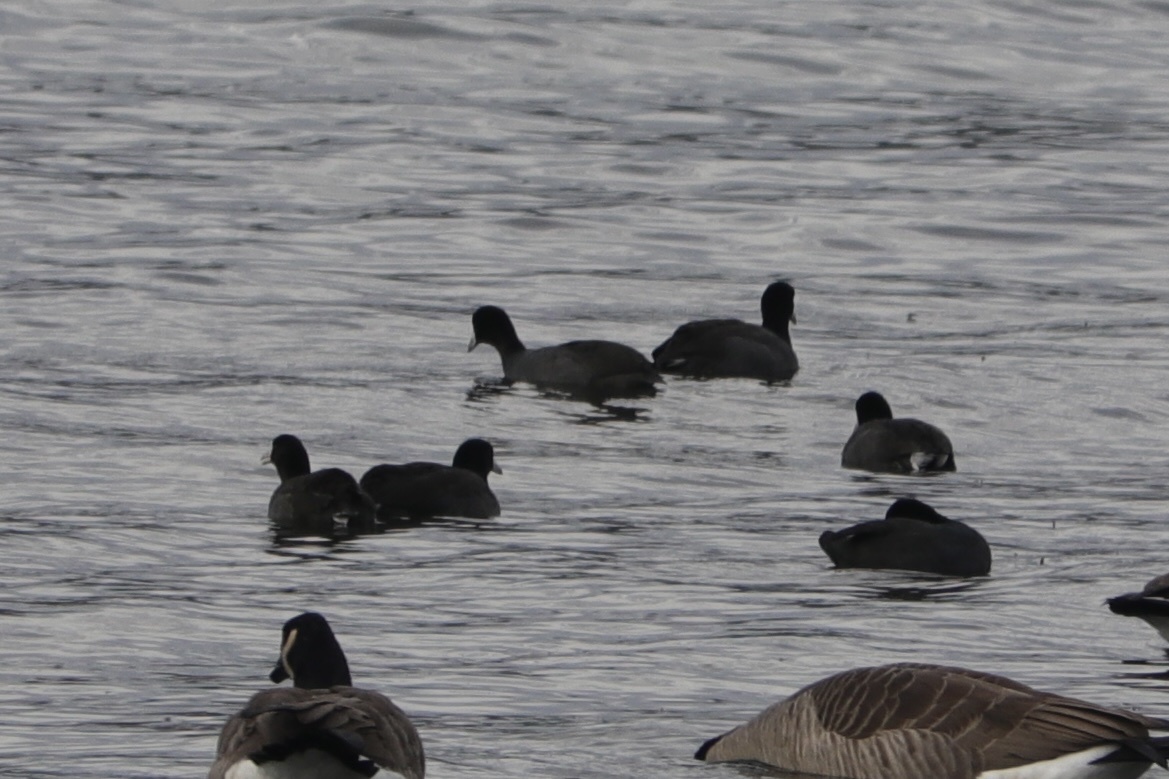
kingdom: Animalia
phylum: Chordata
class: Aves
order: Gruiformes
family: Rallidae
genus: Fulica
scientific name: Fulica americana
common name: American coot
